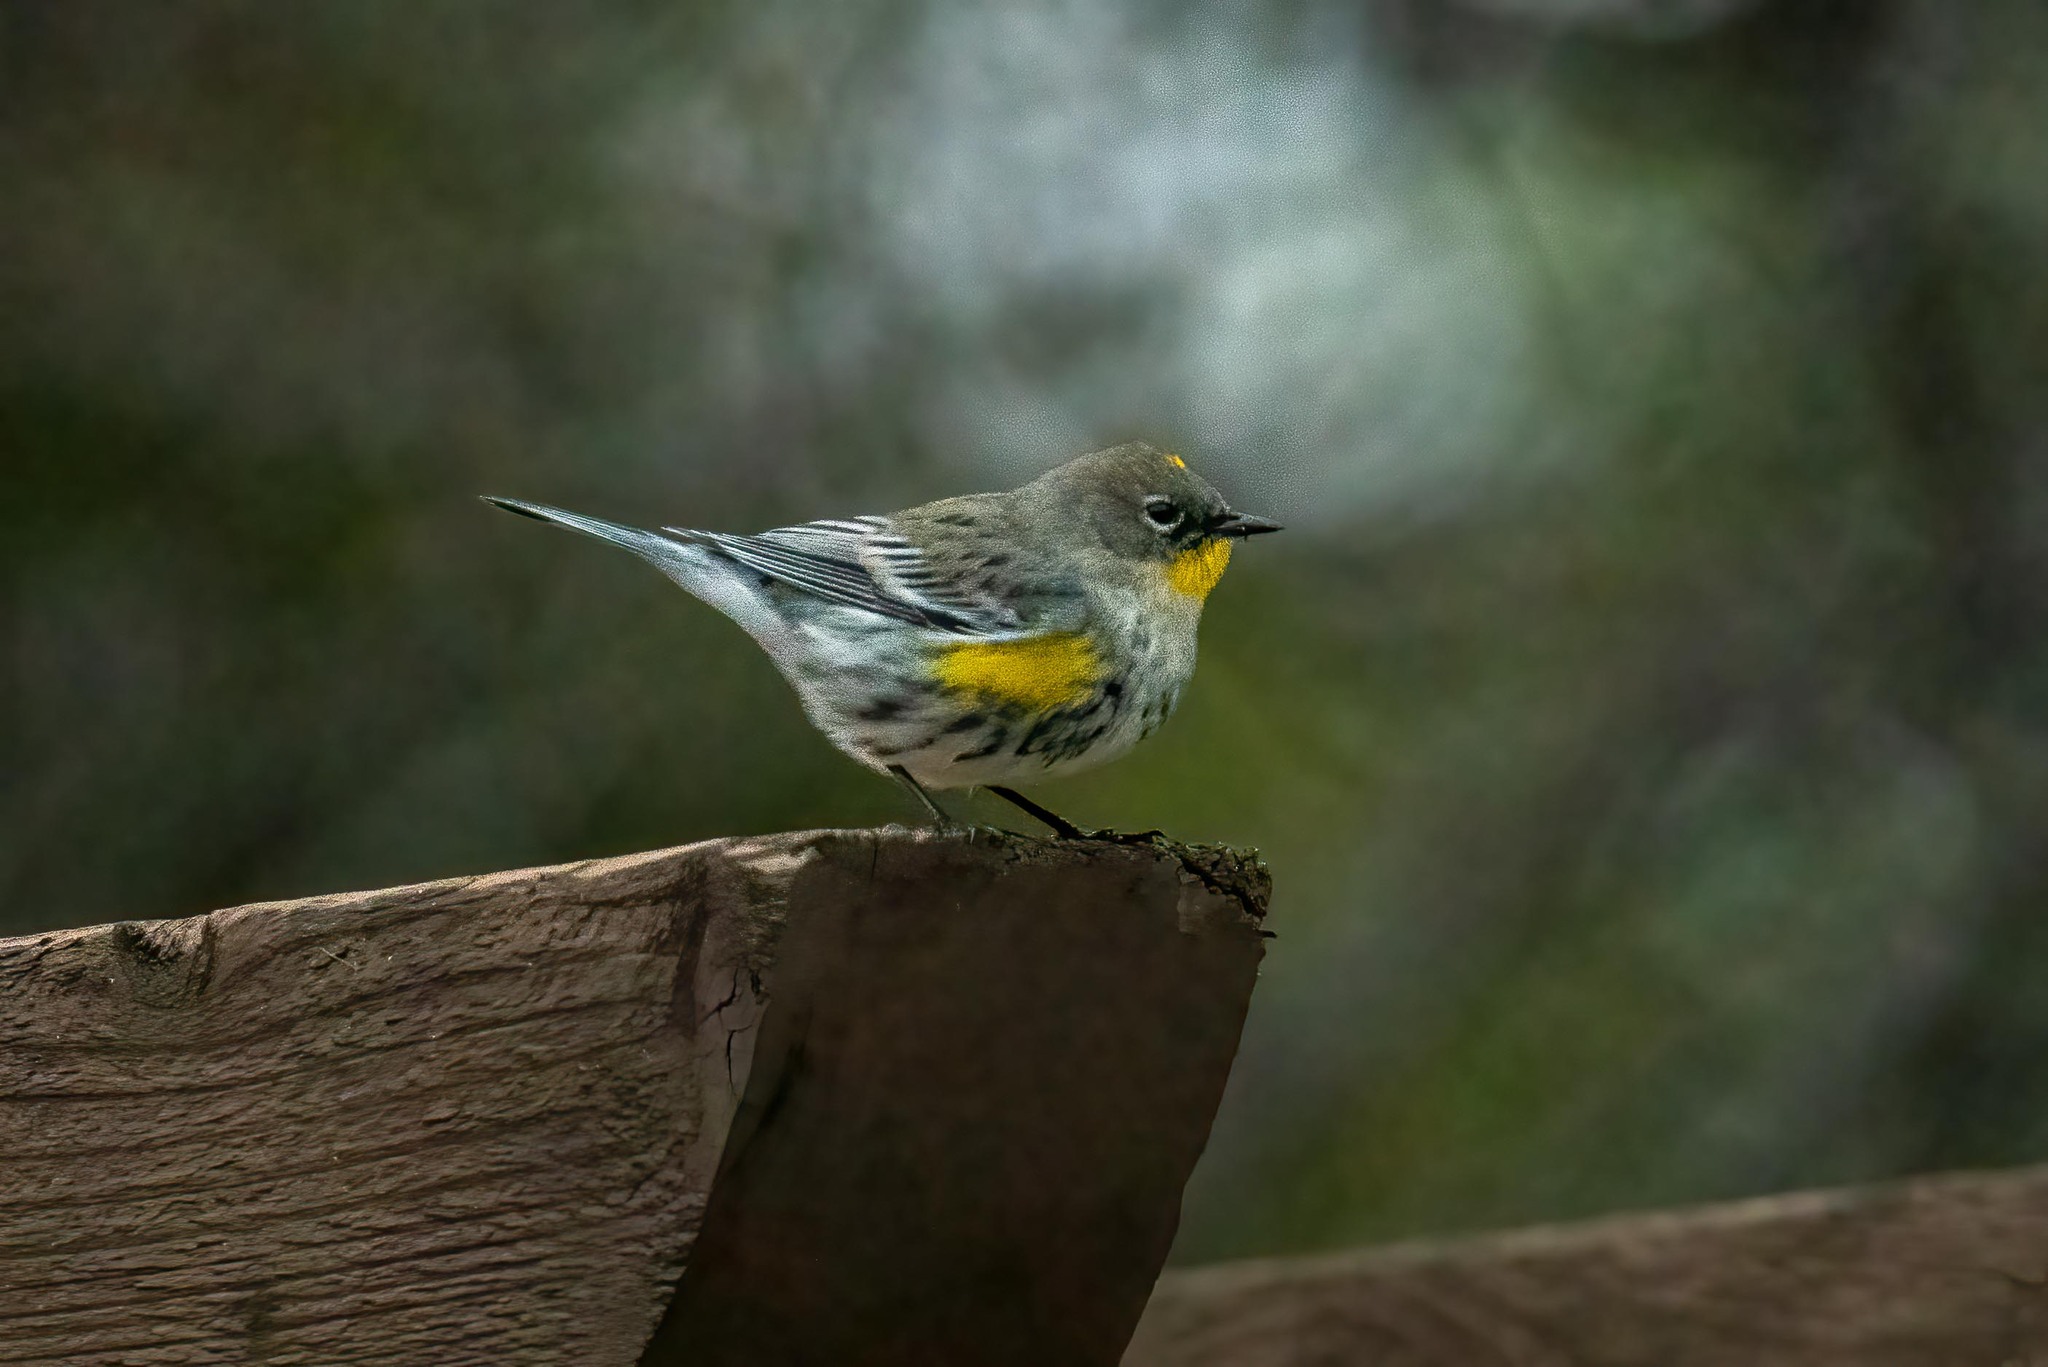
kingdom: Animalia
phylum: Chordata
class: Aves
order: Passeriformes
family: Parulidae
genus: Setophaga
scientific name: Setophaga coronata
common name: Myrtle warbler
